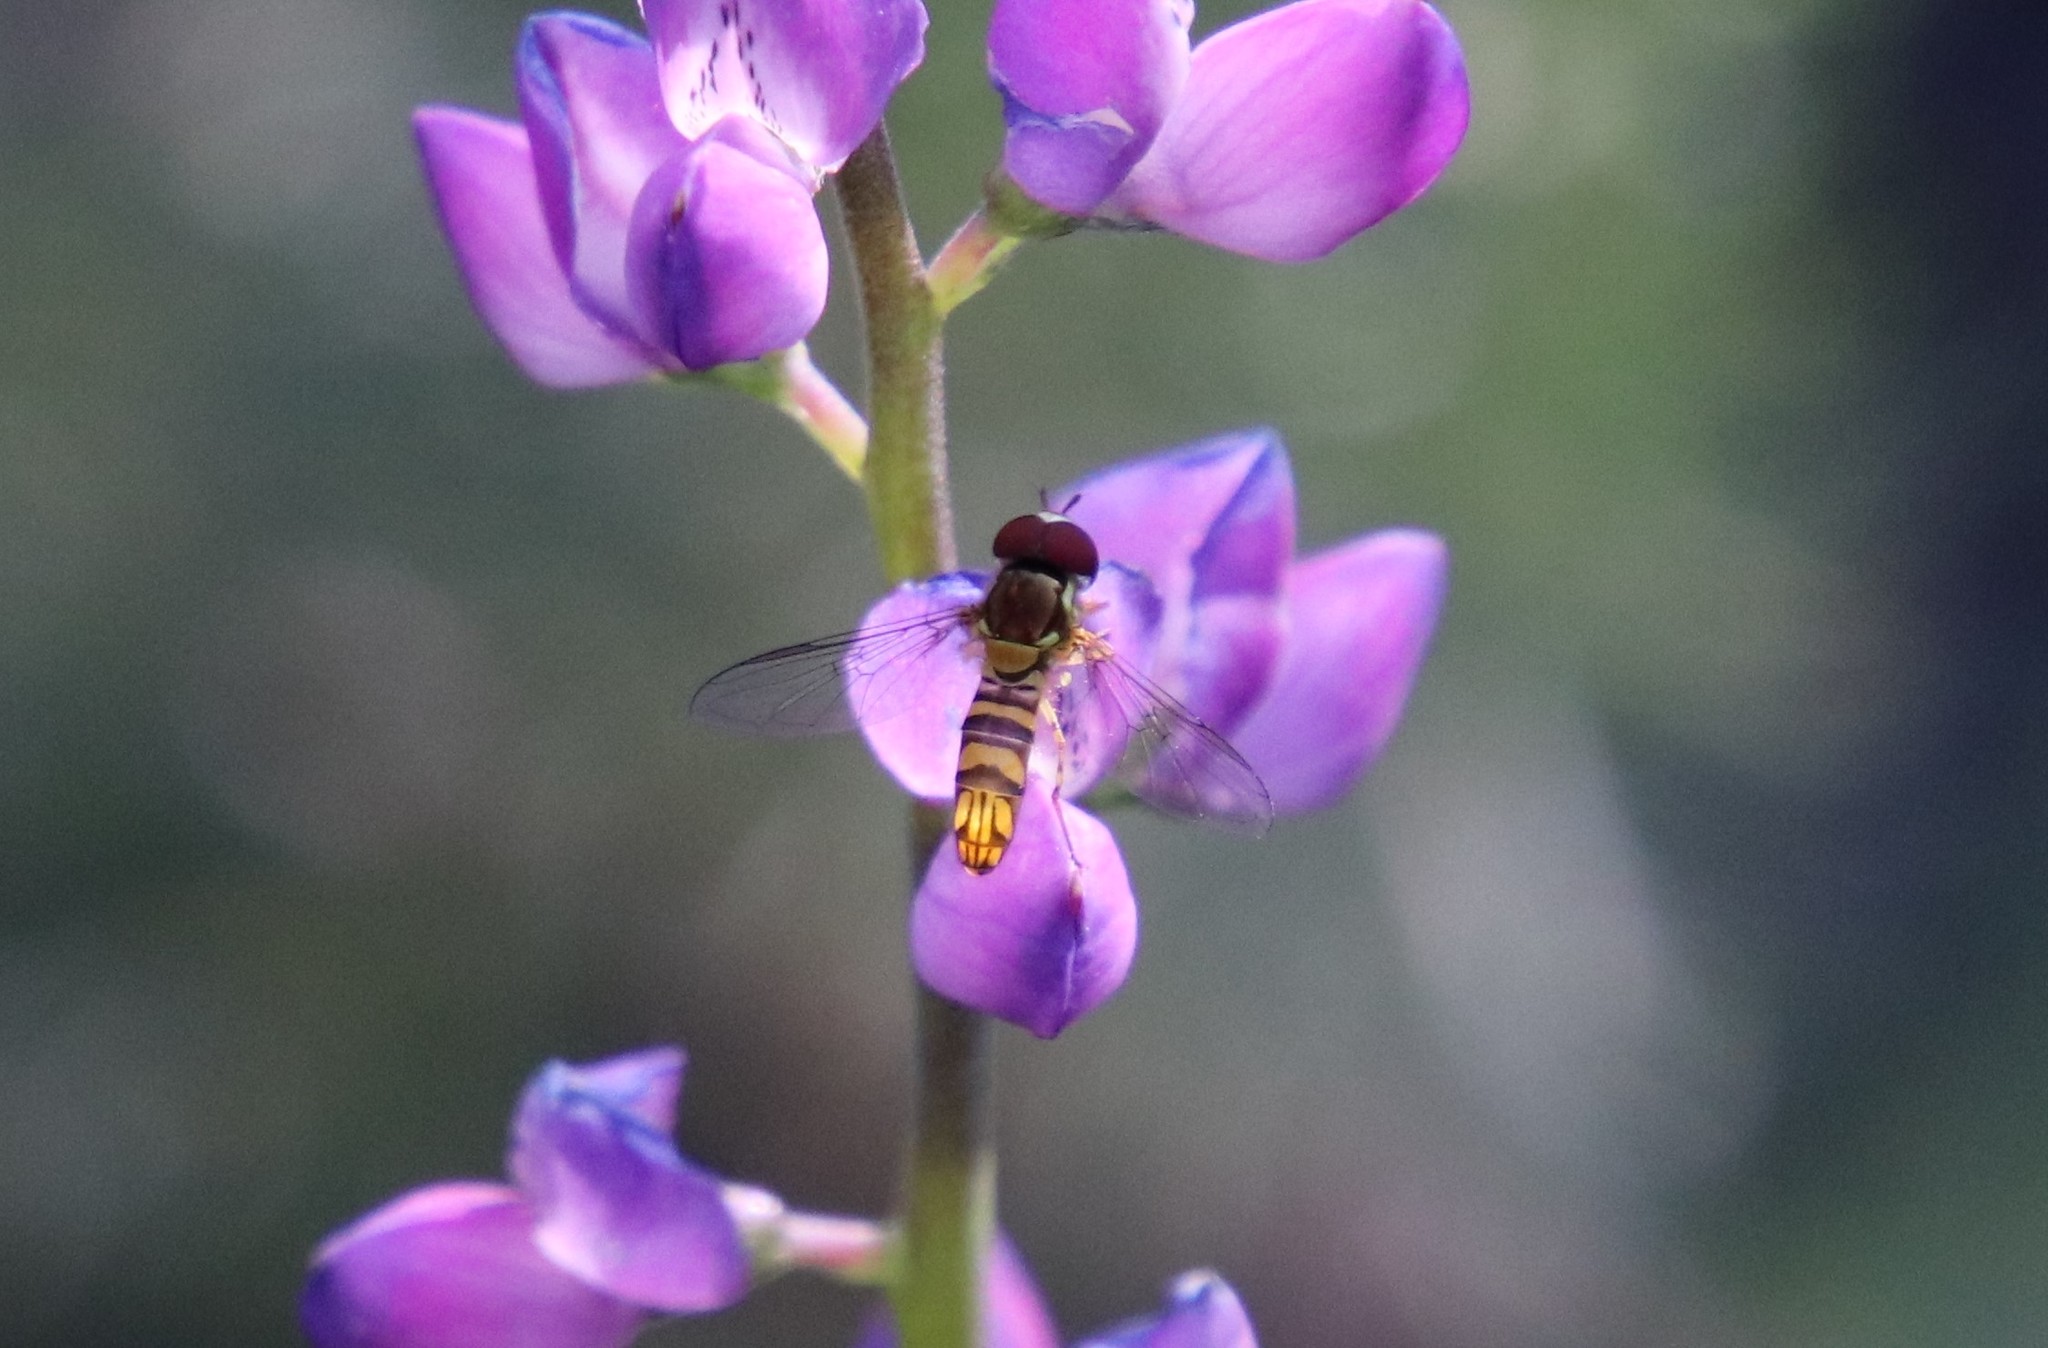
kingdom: Animalia
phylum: Arthropoda
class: Insecta
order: Diptera
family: Syrphidae
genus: Allograpta
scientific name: Allograpta obliqua
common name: Common oblique syrphid
